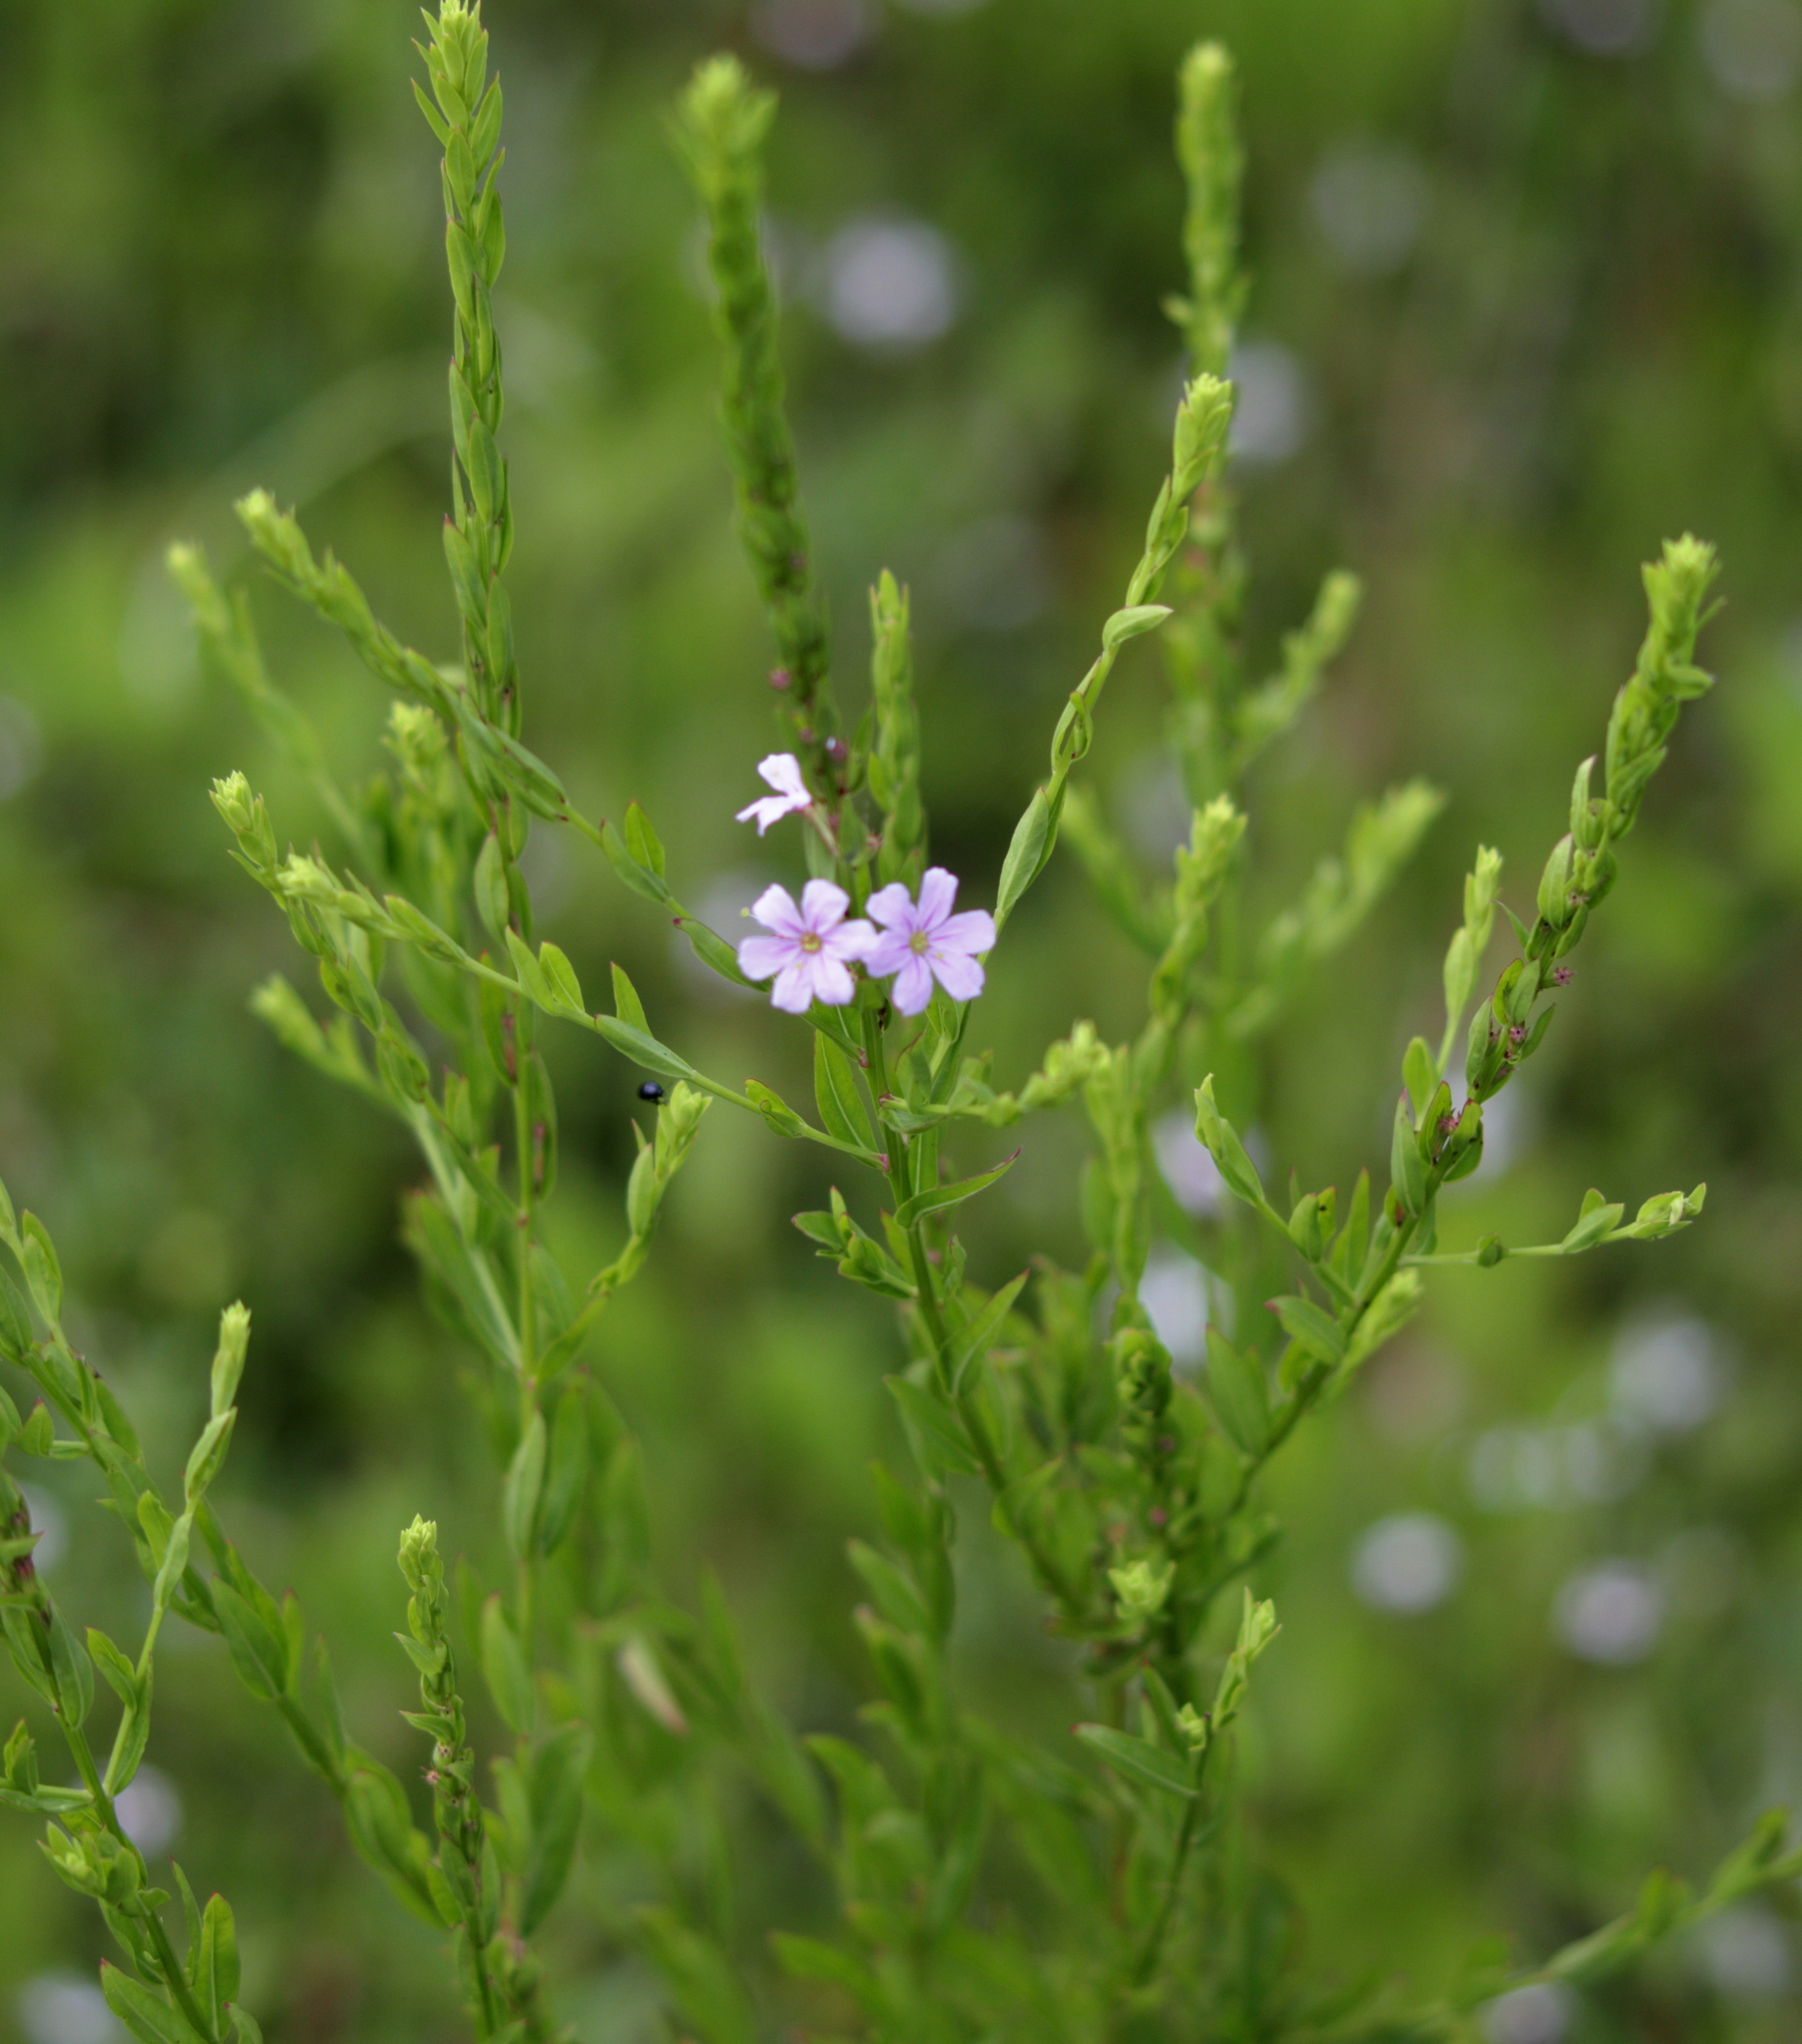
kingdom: Plantae
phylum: Tracheophyta
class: Magnoliopsida
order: Myrtales
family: Lythraceae
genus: Lythrum
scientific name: Lythrum alatum
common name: Winged loosestrife
